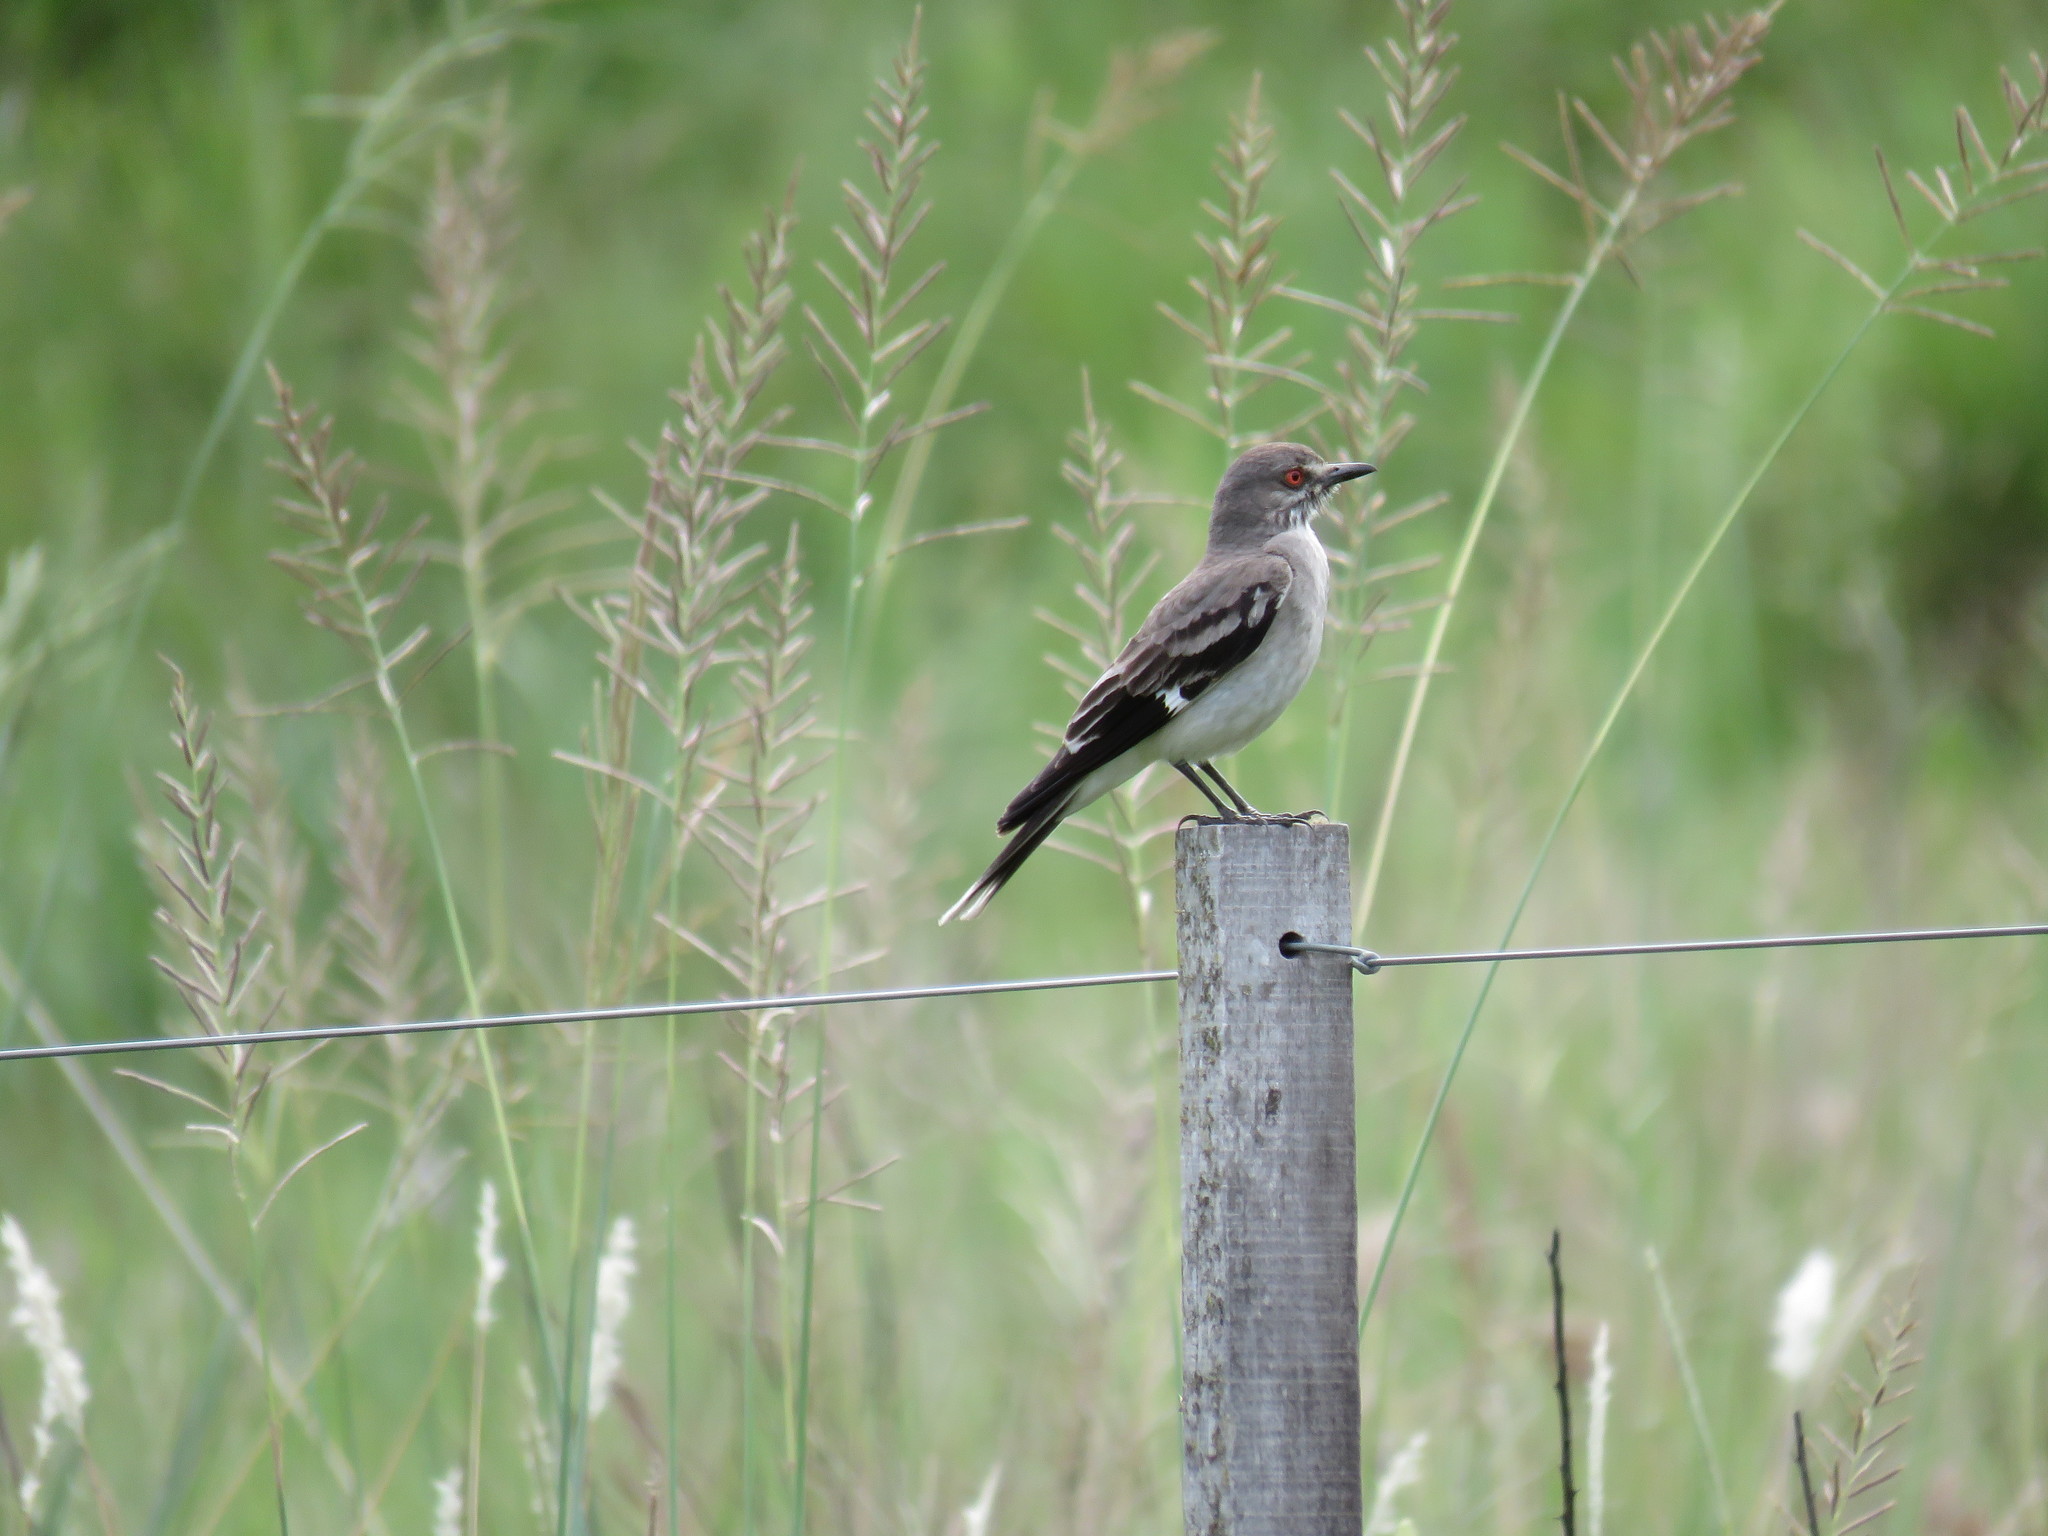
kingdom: Animalia
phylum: Chordata
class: Aves
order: Passeriformes
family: Tyrannidae
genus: Xolmis
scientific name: Xolmis cinereus
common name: Grey monjita
